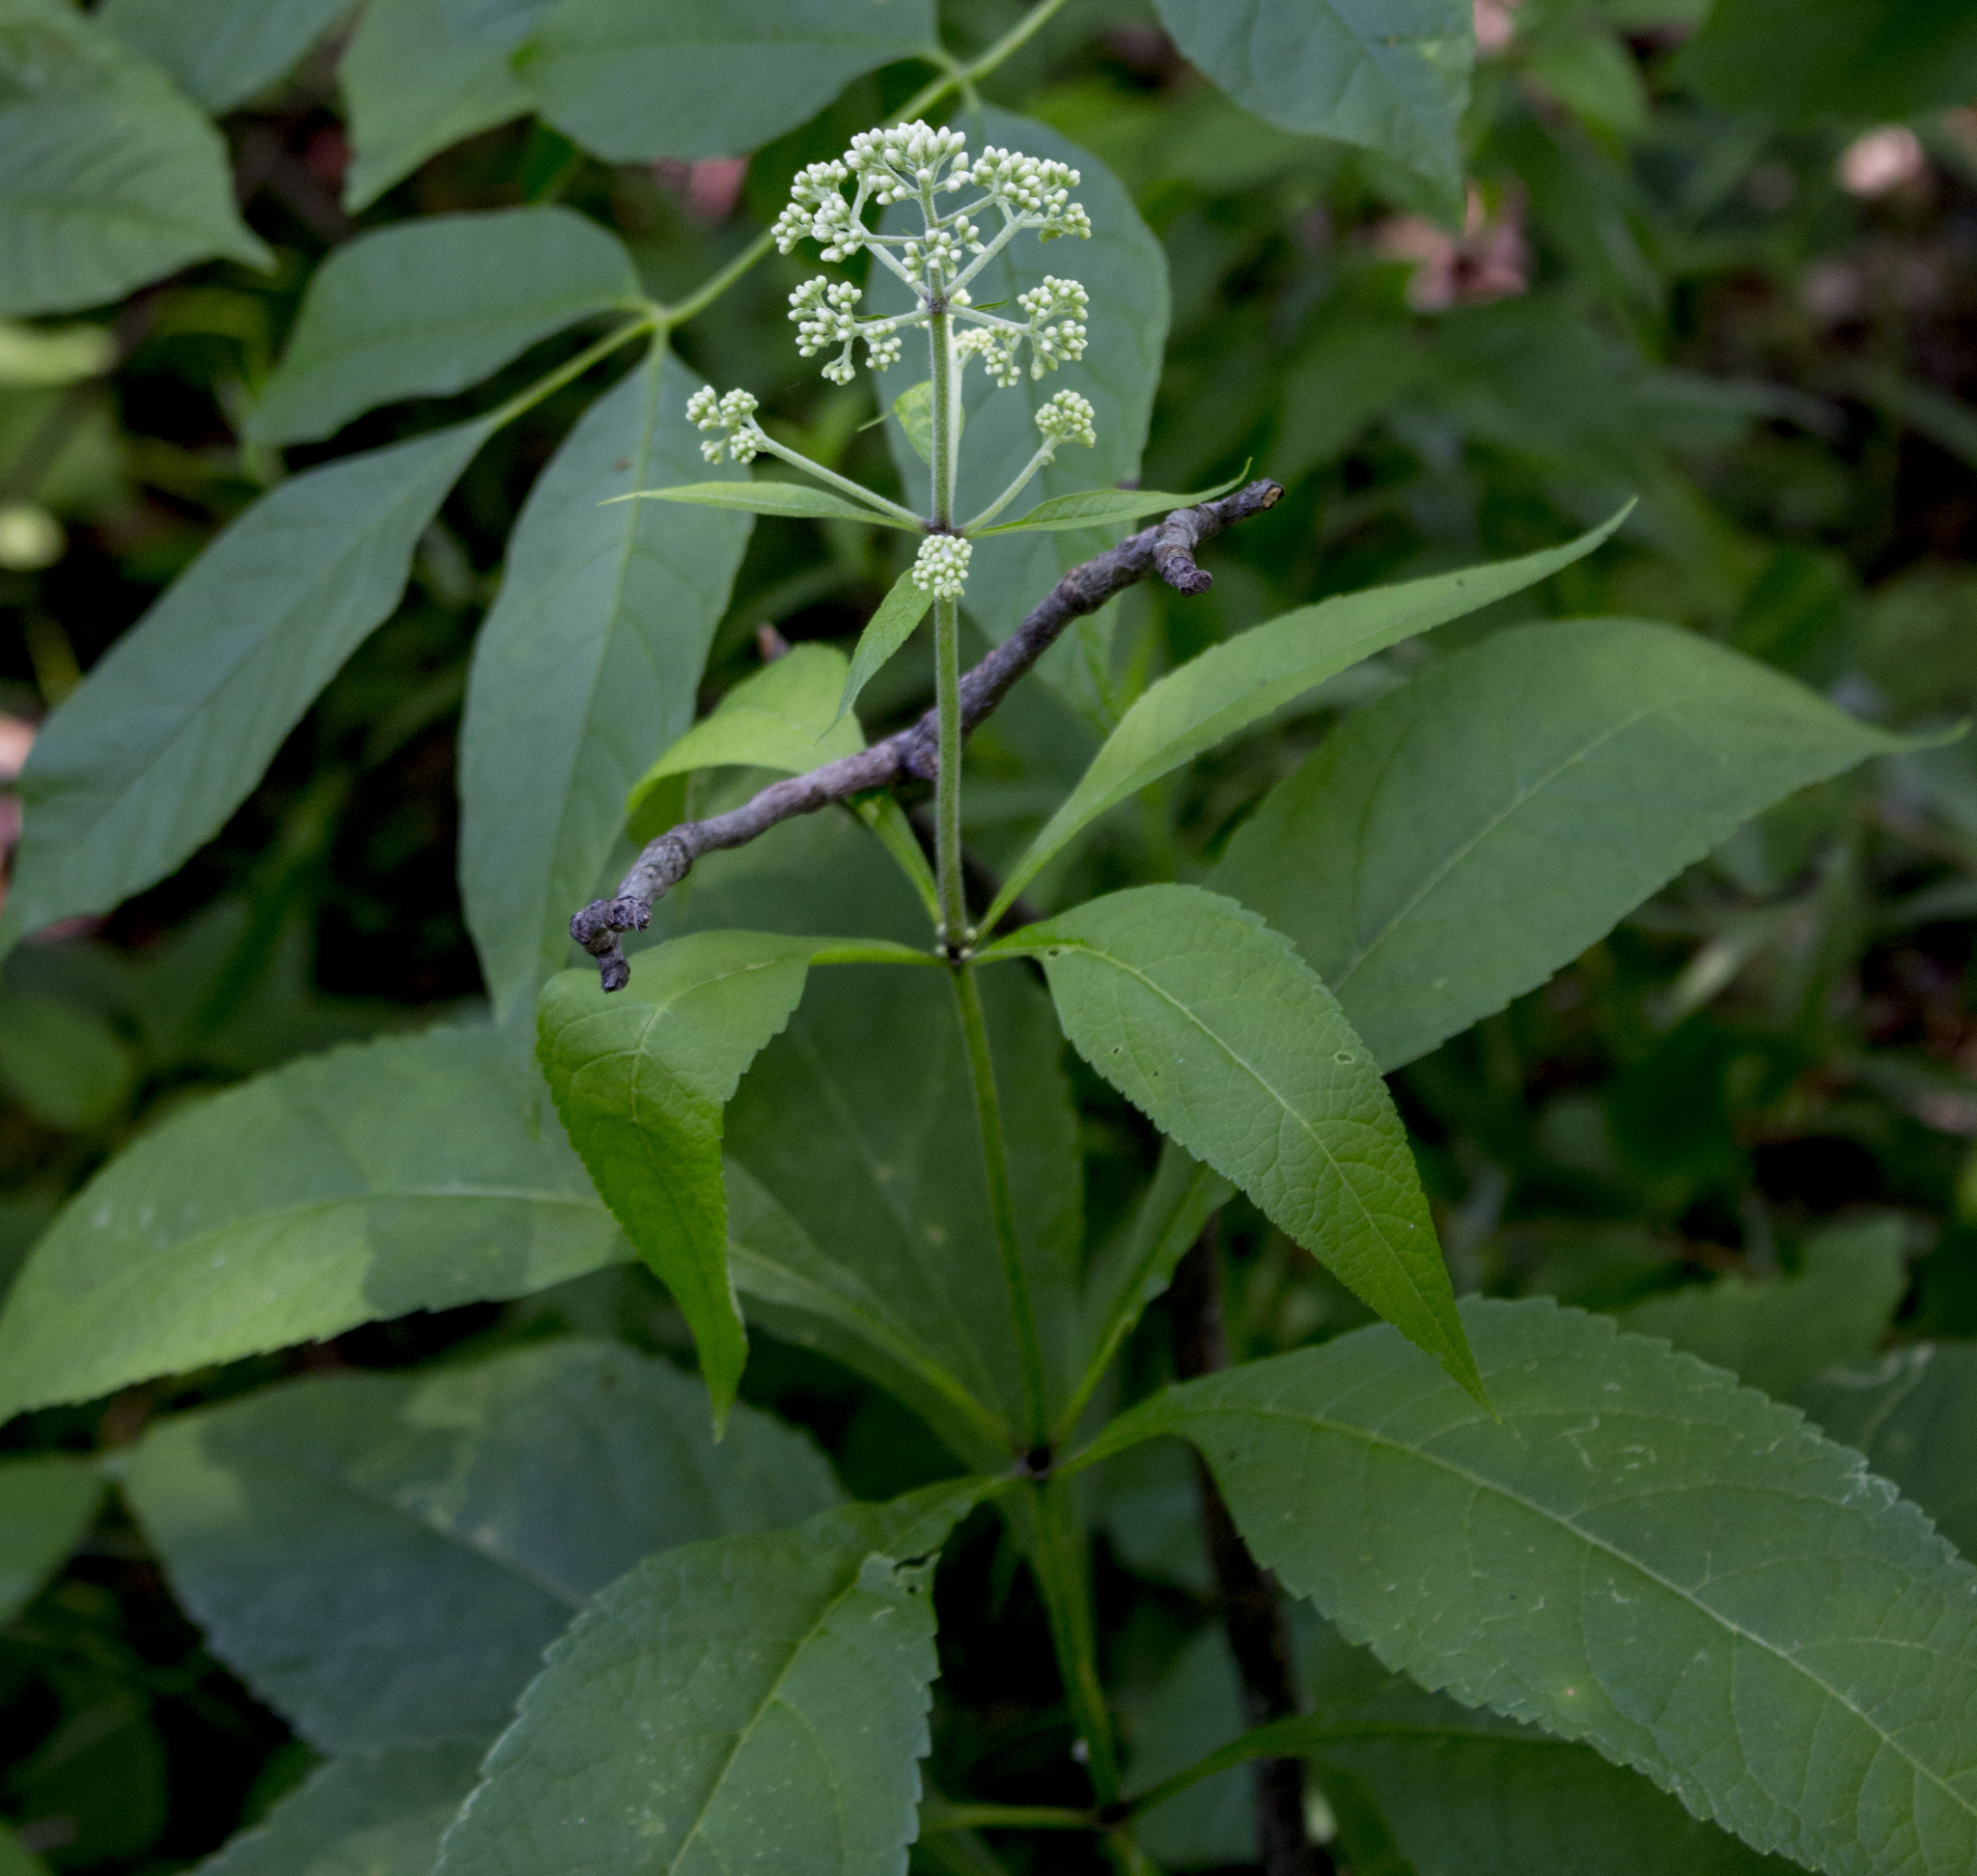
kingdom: Plantae
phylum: Tracheophyta
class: Magnoliopsida
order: Asterales
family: Asteraceae
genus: Eutrochium
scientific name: Eutrochium purpureum
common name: Gravelroot
